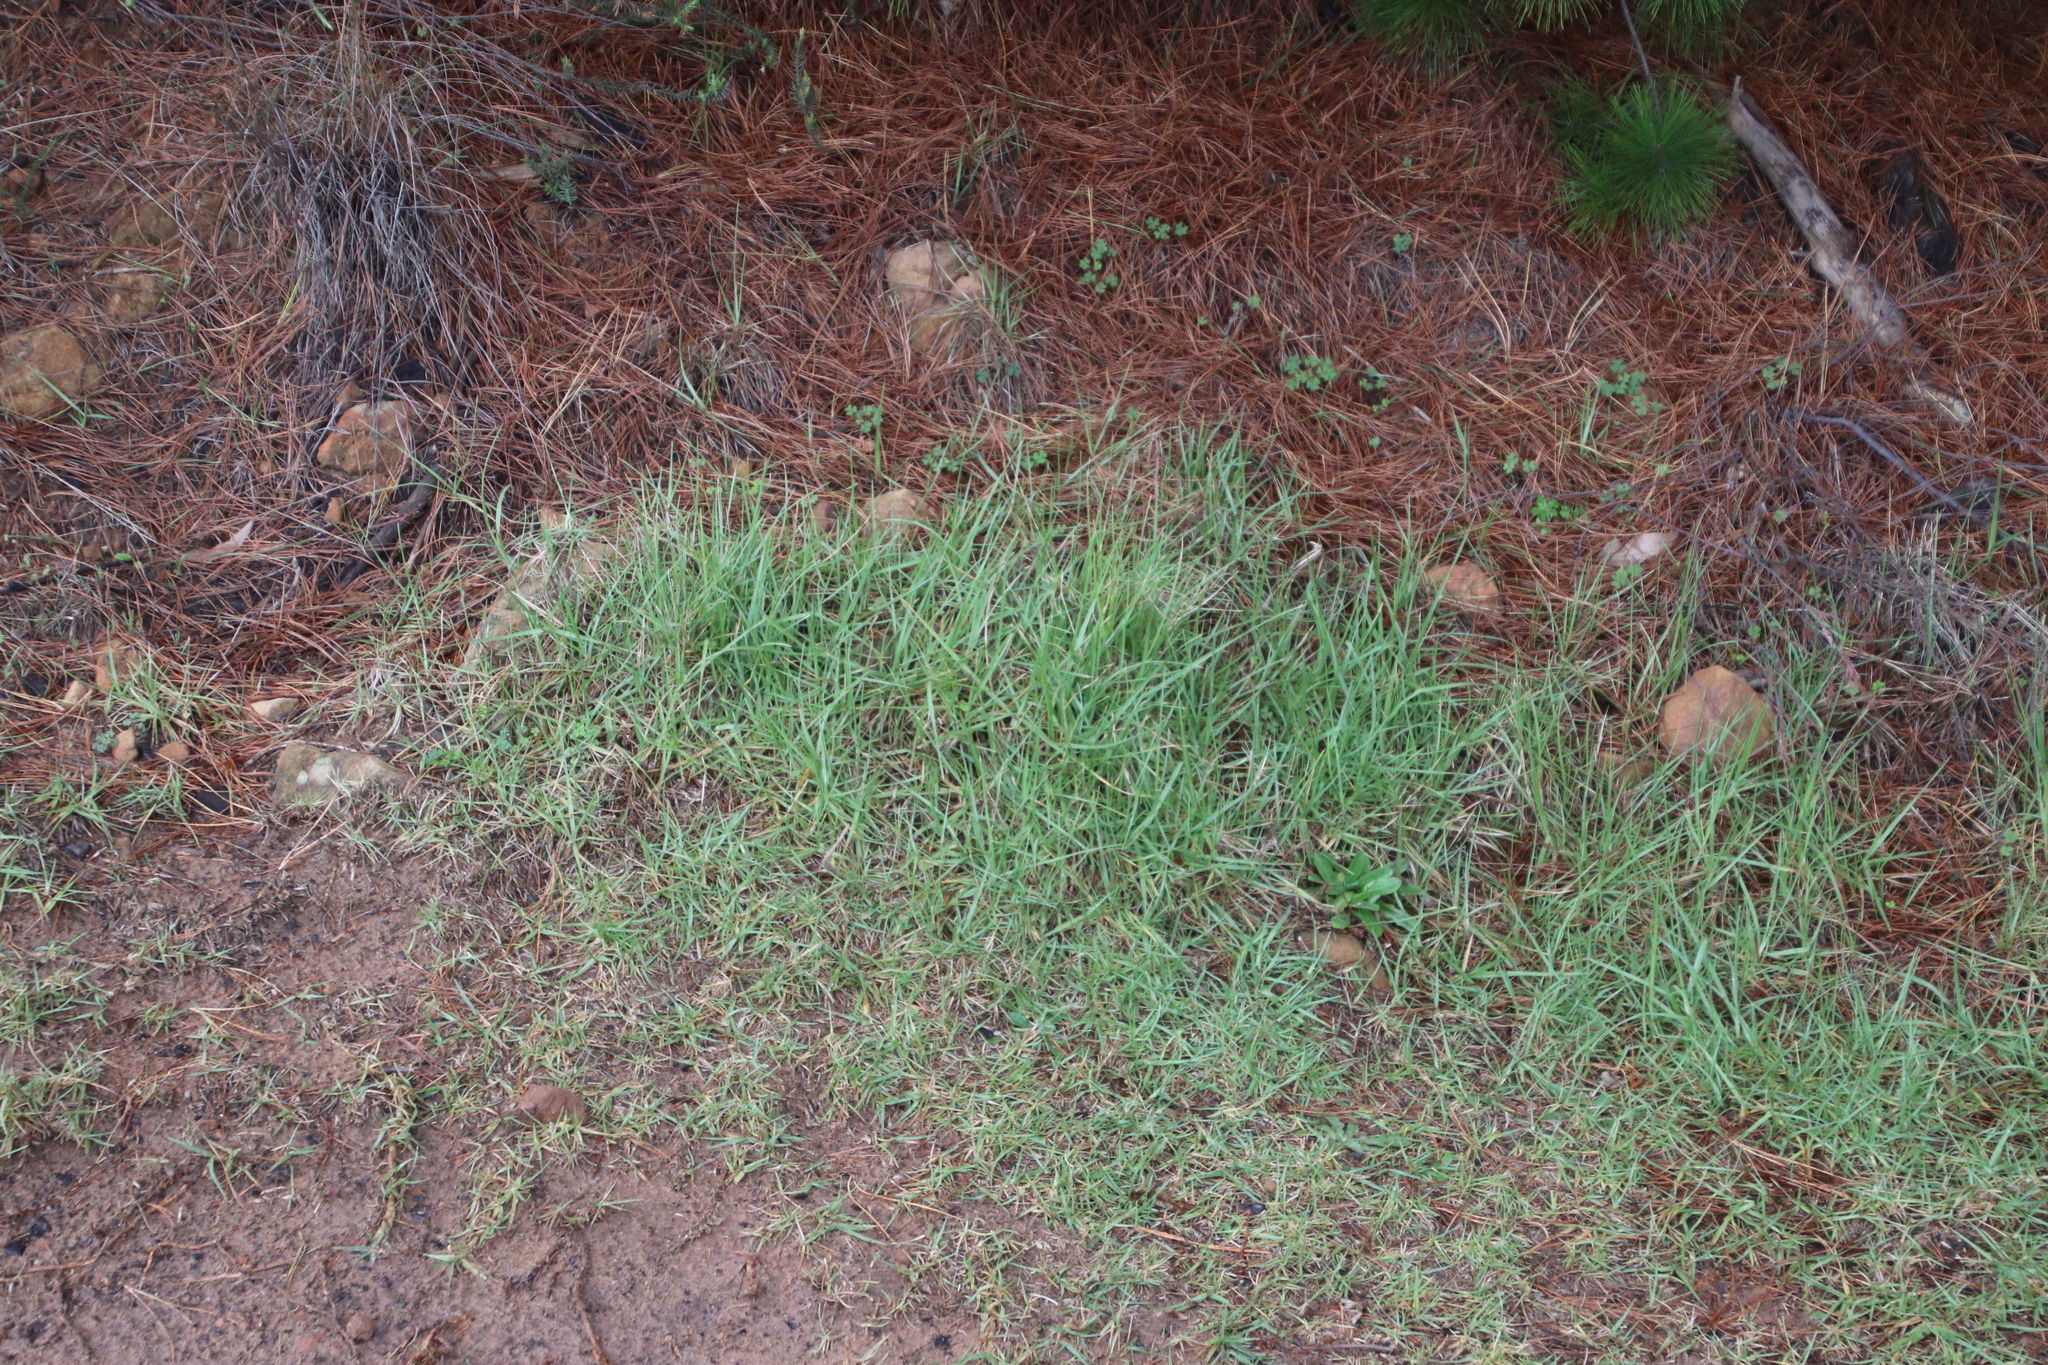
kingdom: Plantae
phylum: Tracheophyta
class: Liliopsida
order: Poales
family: Poaceae
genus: Cenchrus
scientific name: Cenchrus clandestinus
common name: Kikuyugrass
